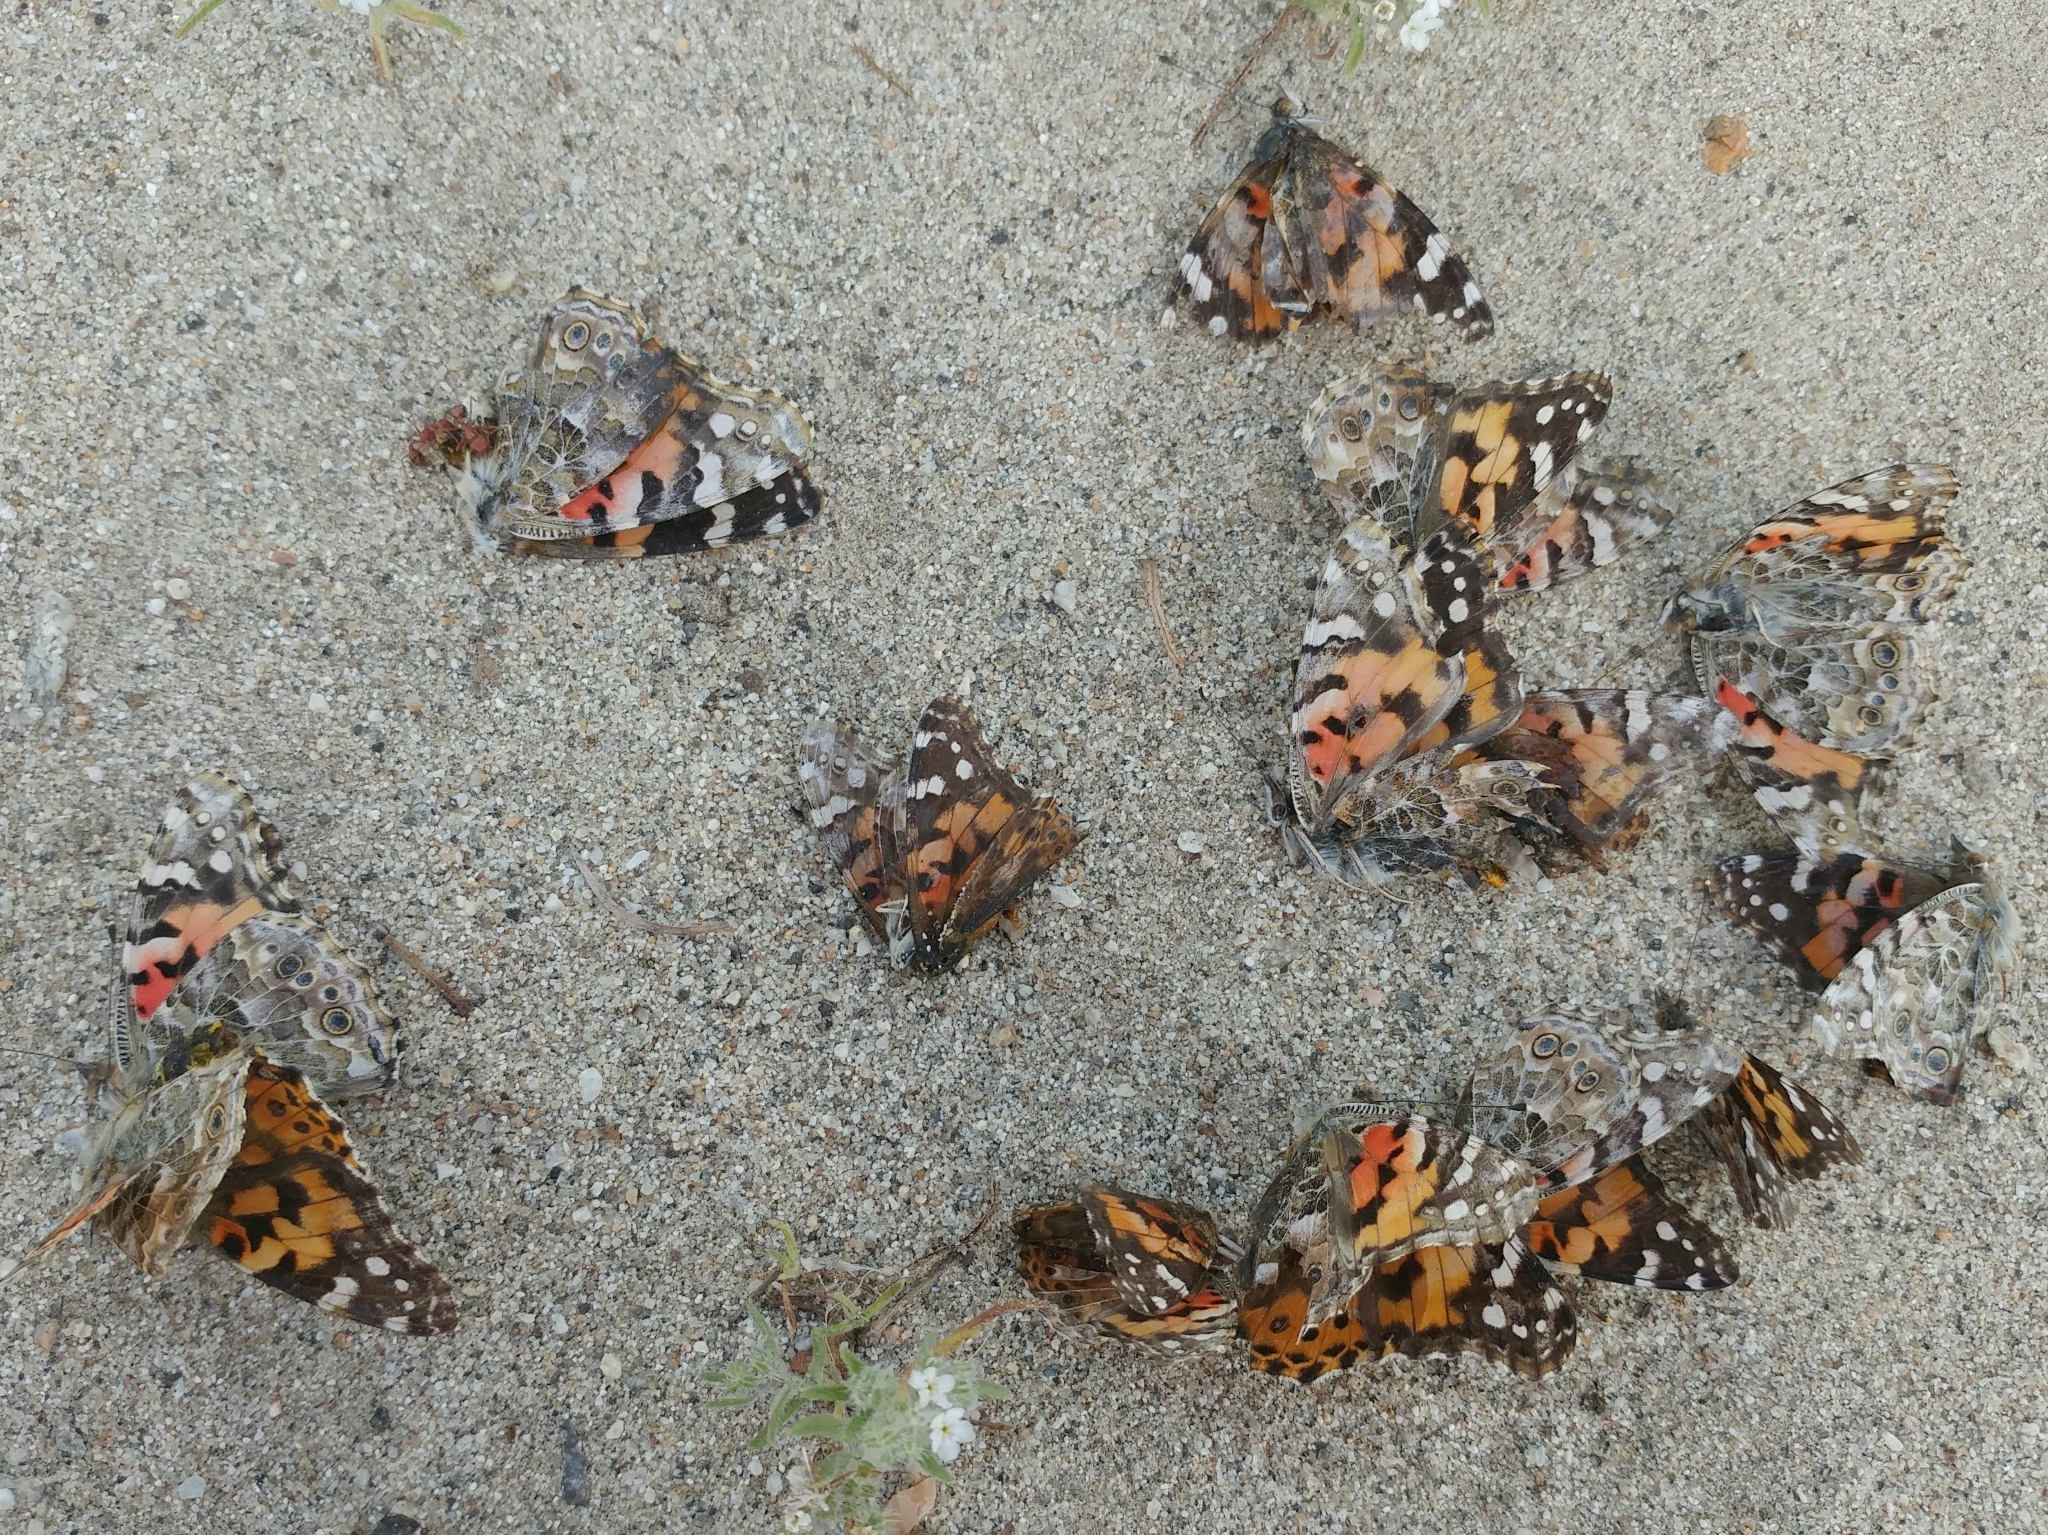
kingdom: Animalia
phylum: Arthropoda
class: Insecta
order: Lepidoptera
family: Nymphalidae
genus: Vanessa
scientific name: Vanessa cardui
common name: Painted lady
